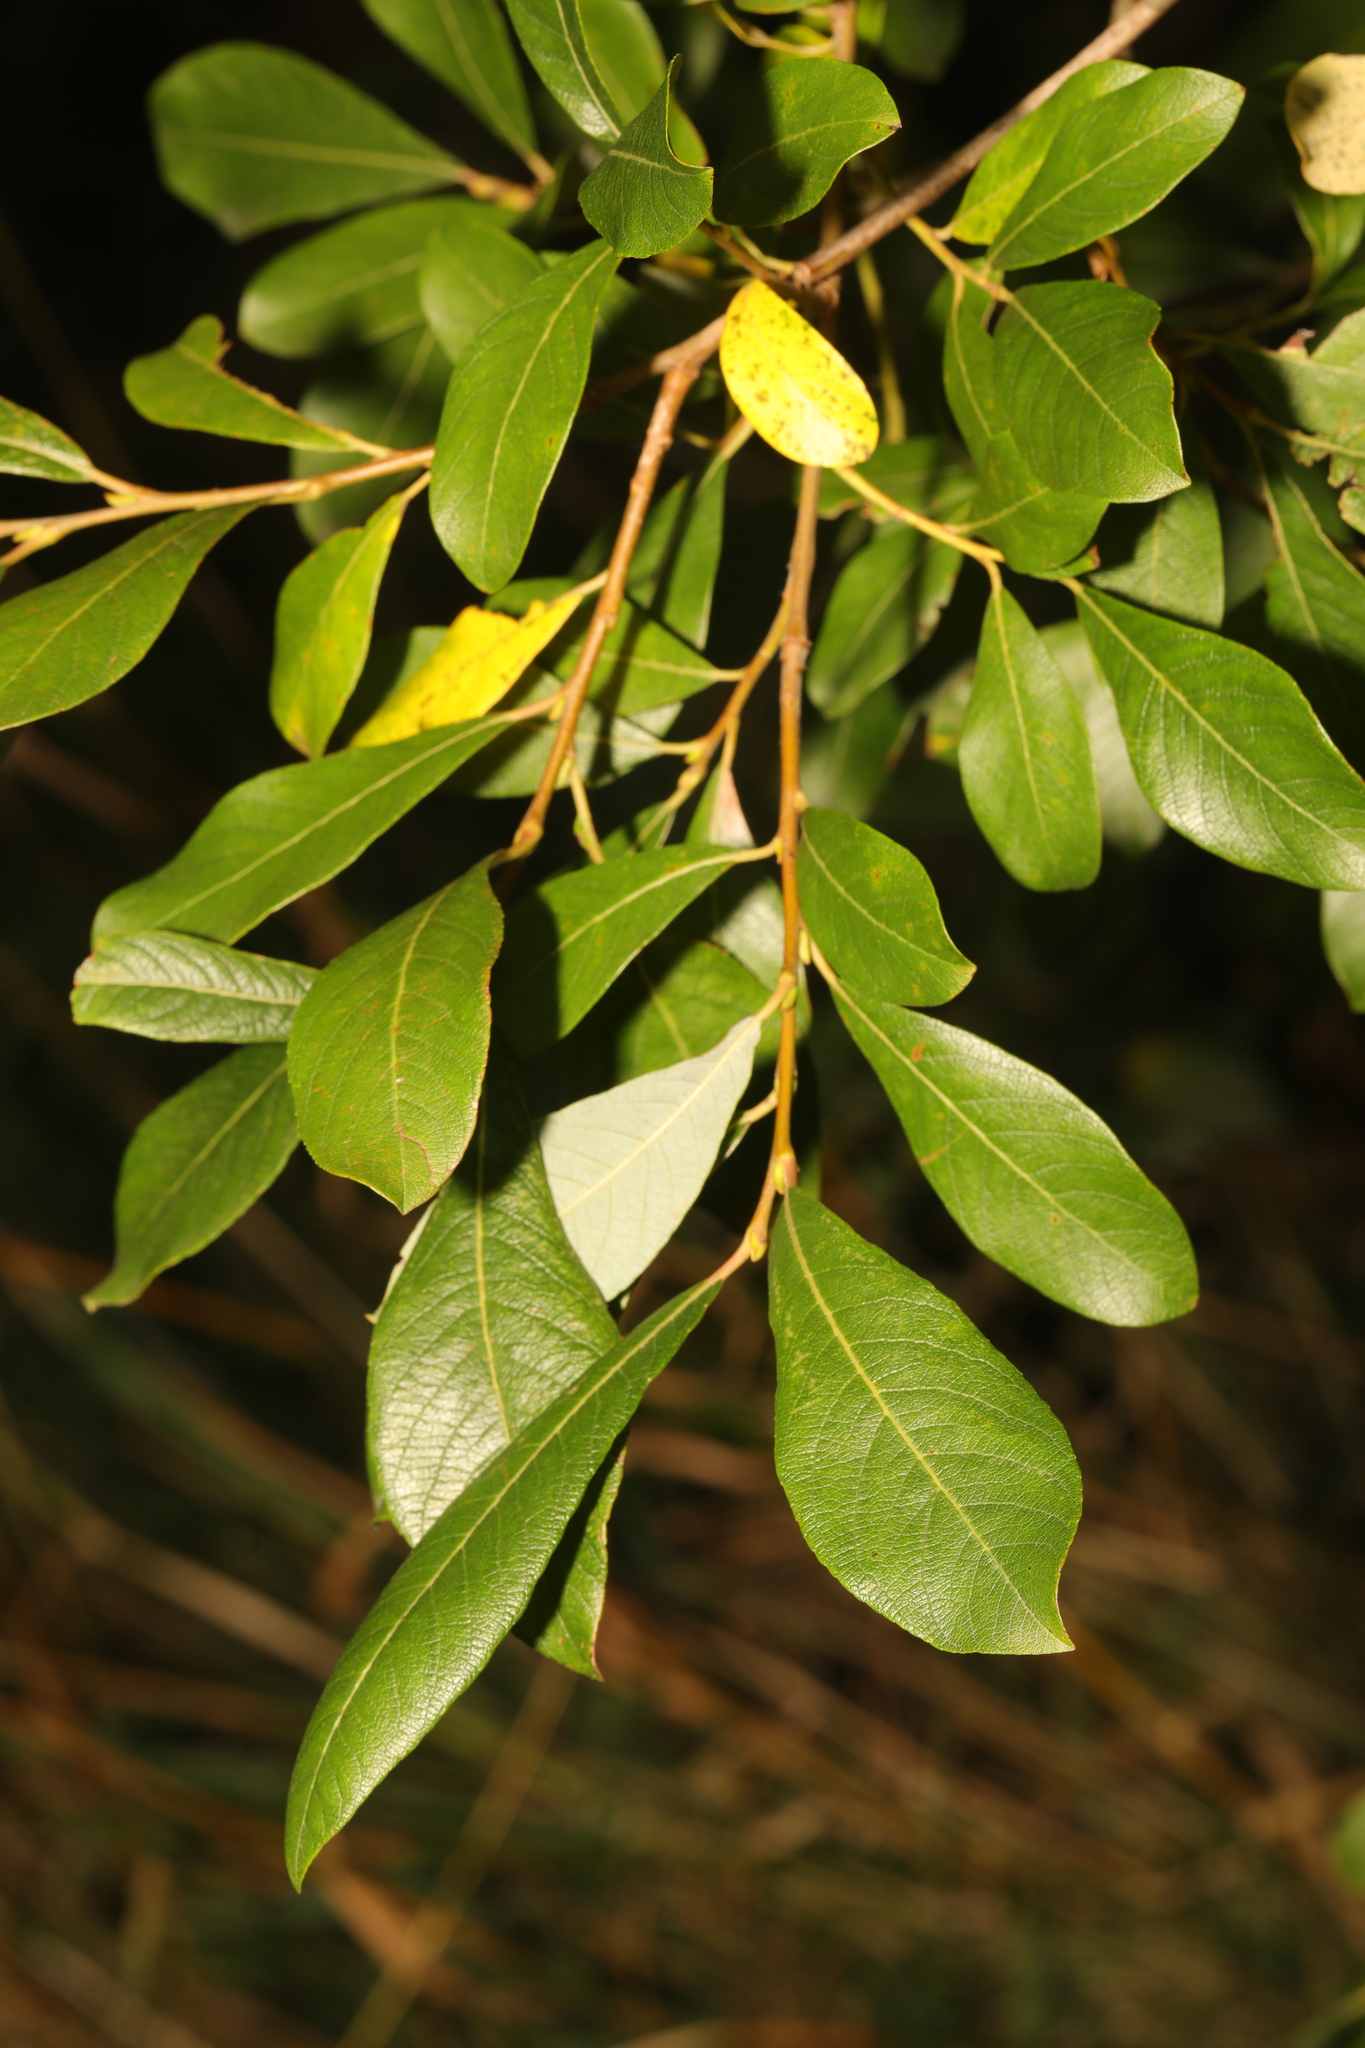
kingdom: Plantae
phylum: Tracheophyta
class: Magnoliopsida
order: Malpighiales
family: Salicaceae
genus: Salix
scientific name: Salix atrocinerea
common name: Rusty willow
